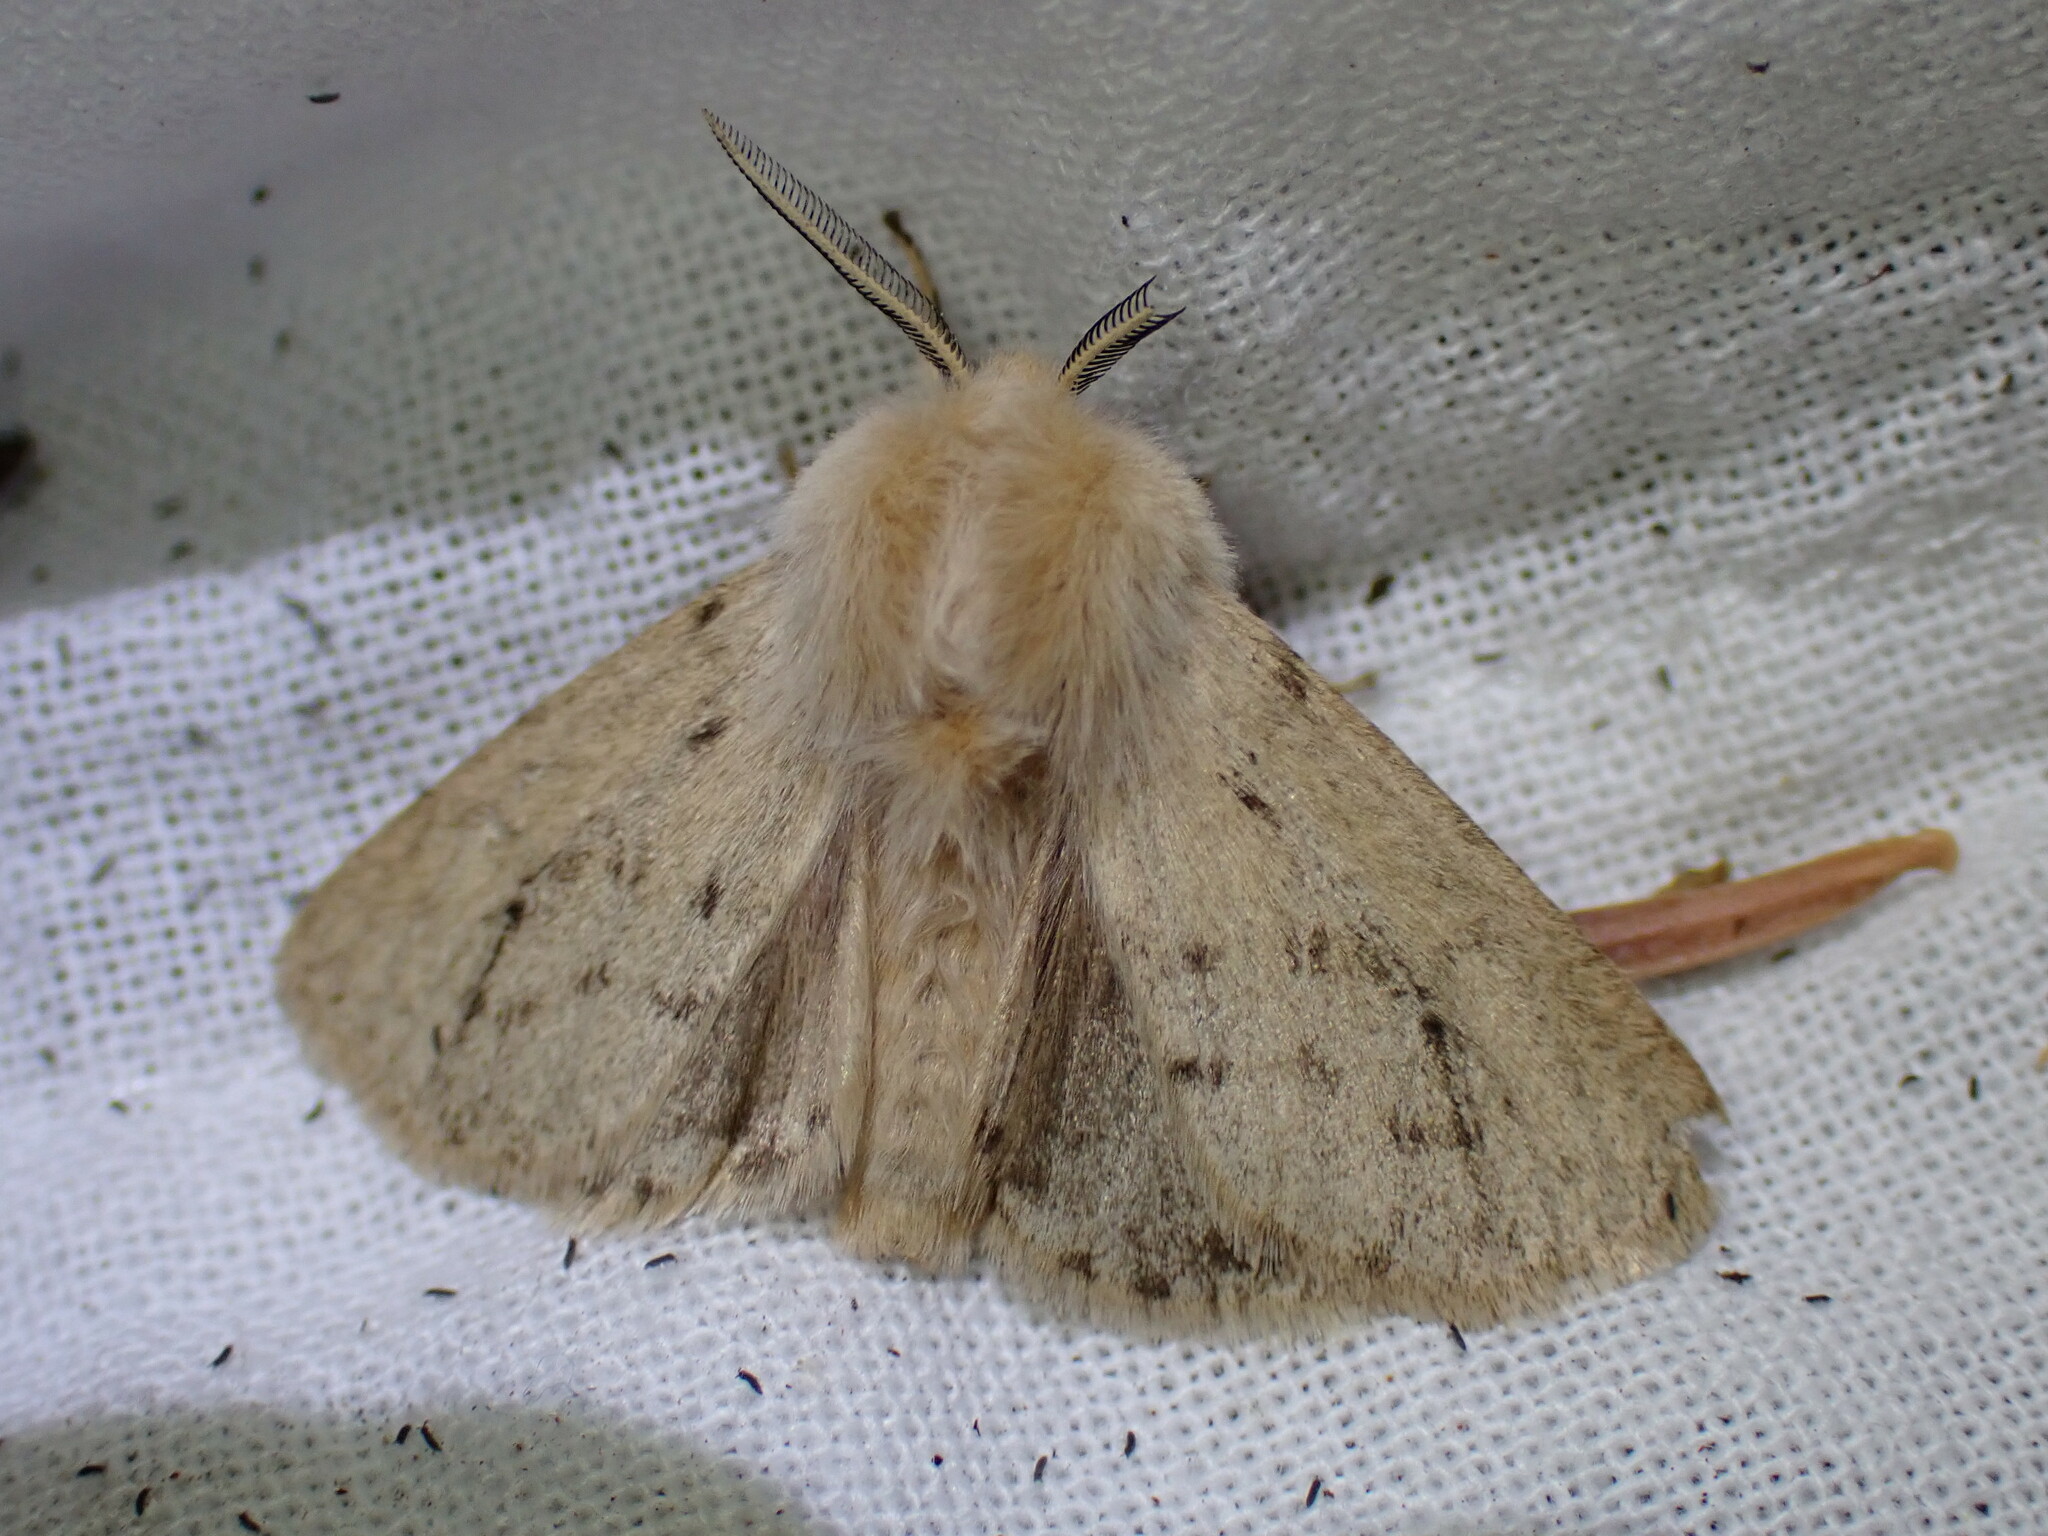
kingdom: Animalia
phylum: Arthropoda
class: Insecta
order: Lepidoptera
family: Erebidae
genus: Spilosoma
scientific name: Spilosoma vagans
